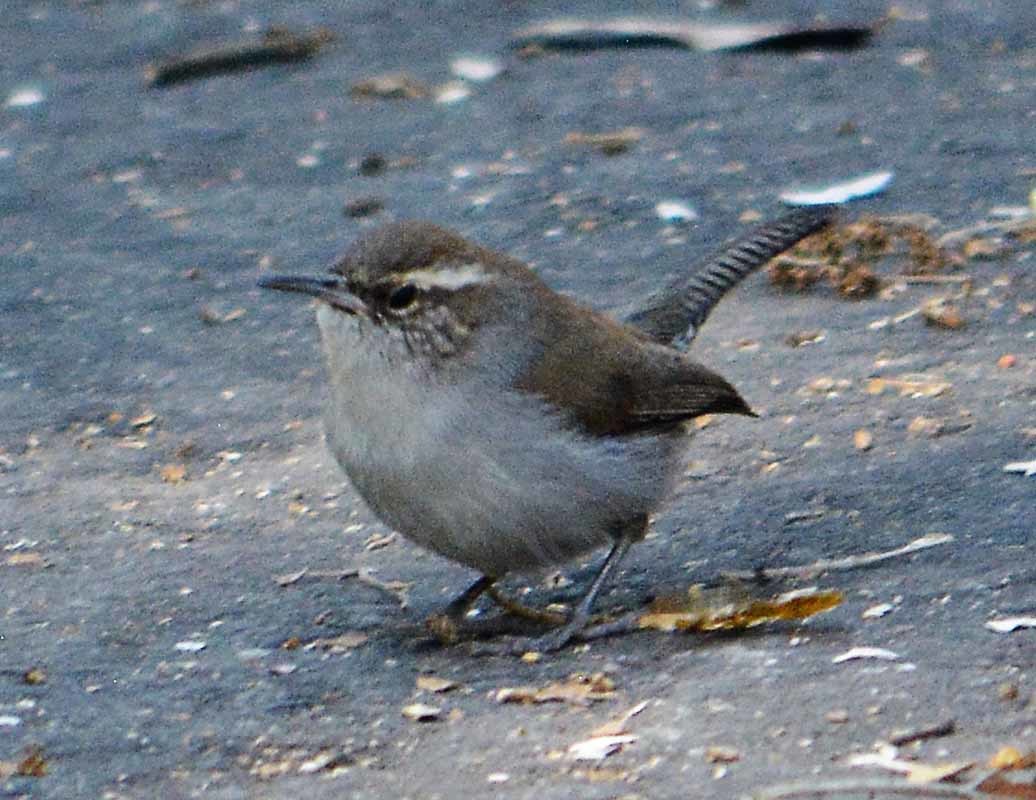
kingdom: Animalia
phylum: Chordata
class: Aves
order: Passeriformes
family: Troglodytidae
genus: Thryomanes
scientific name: Thryomanes bewickii
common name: Bewick's wren
